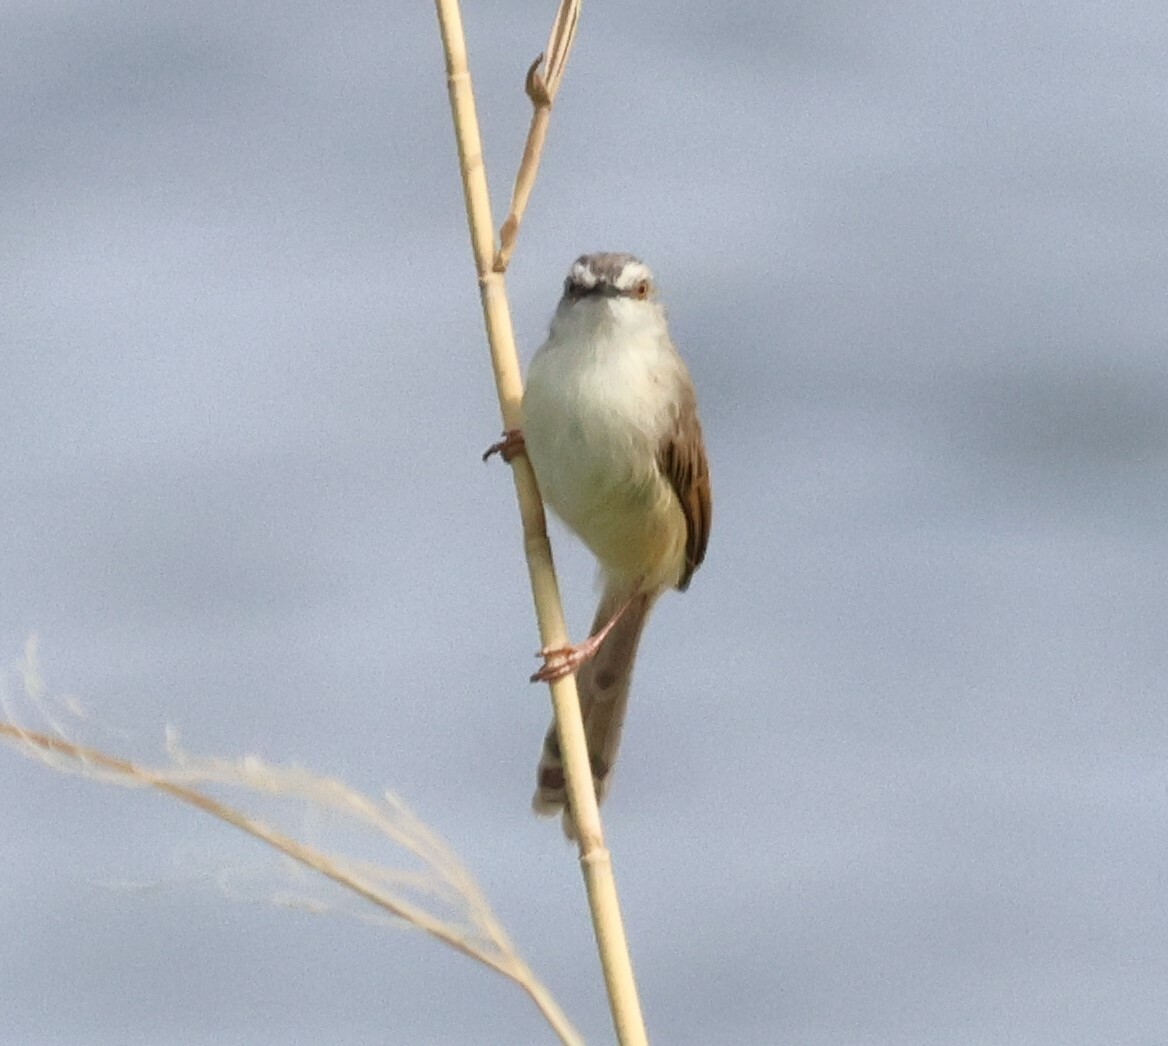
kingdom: Animalia
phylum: Chordata
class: Aves
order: Passeriformes
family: Cisticolidae
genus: Prinia
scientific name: Prinia subflava
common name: Tawny-flanked prinia
